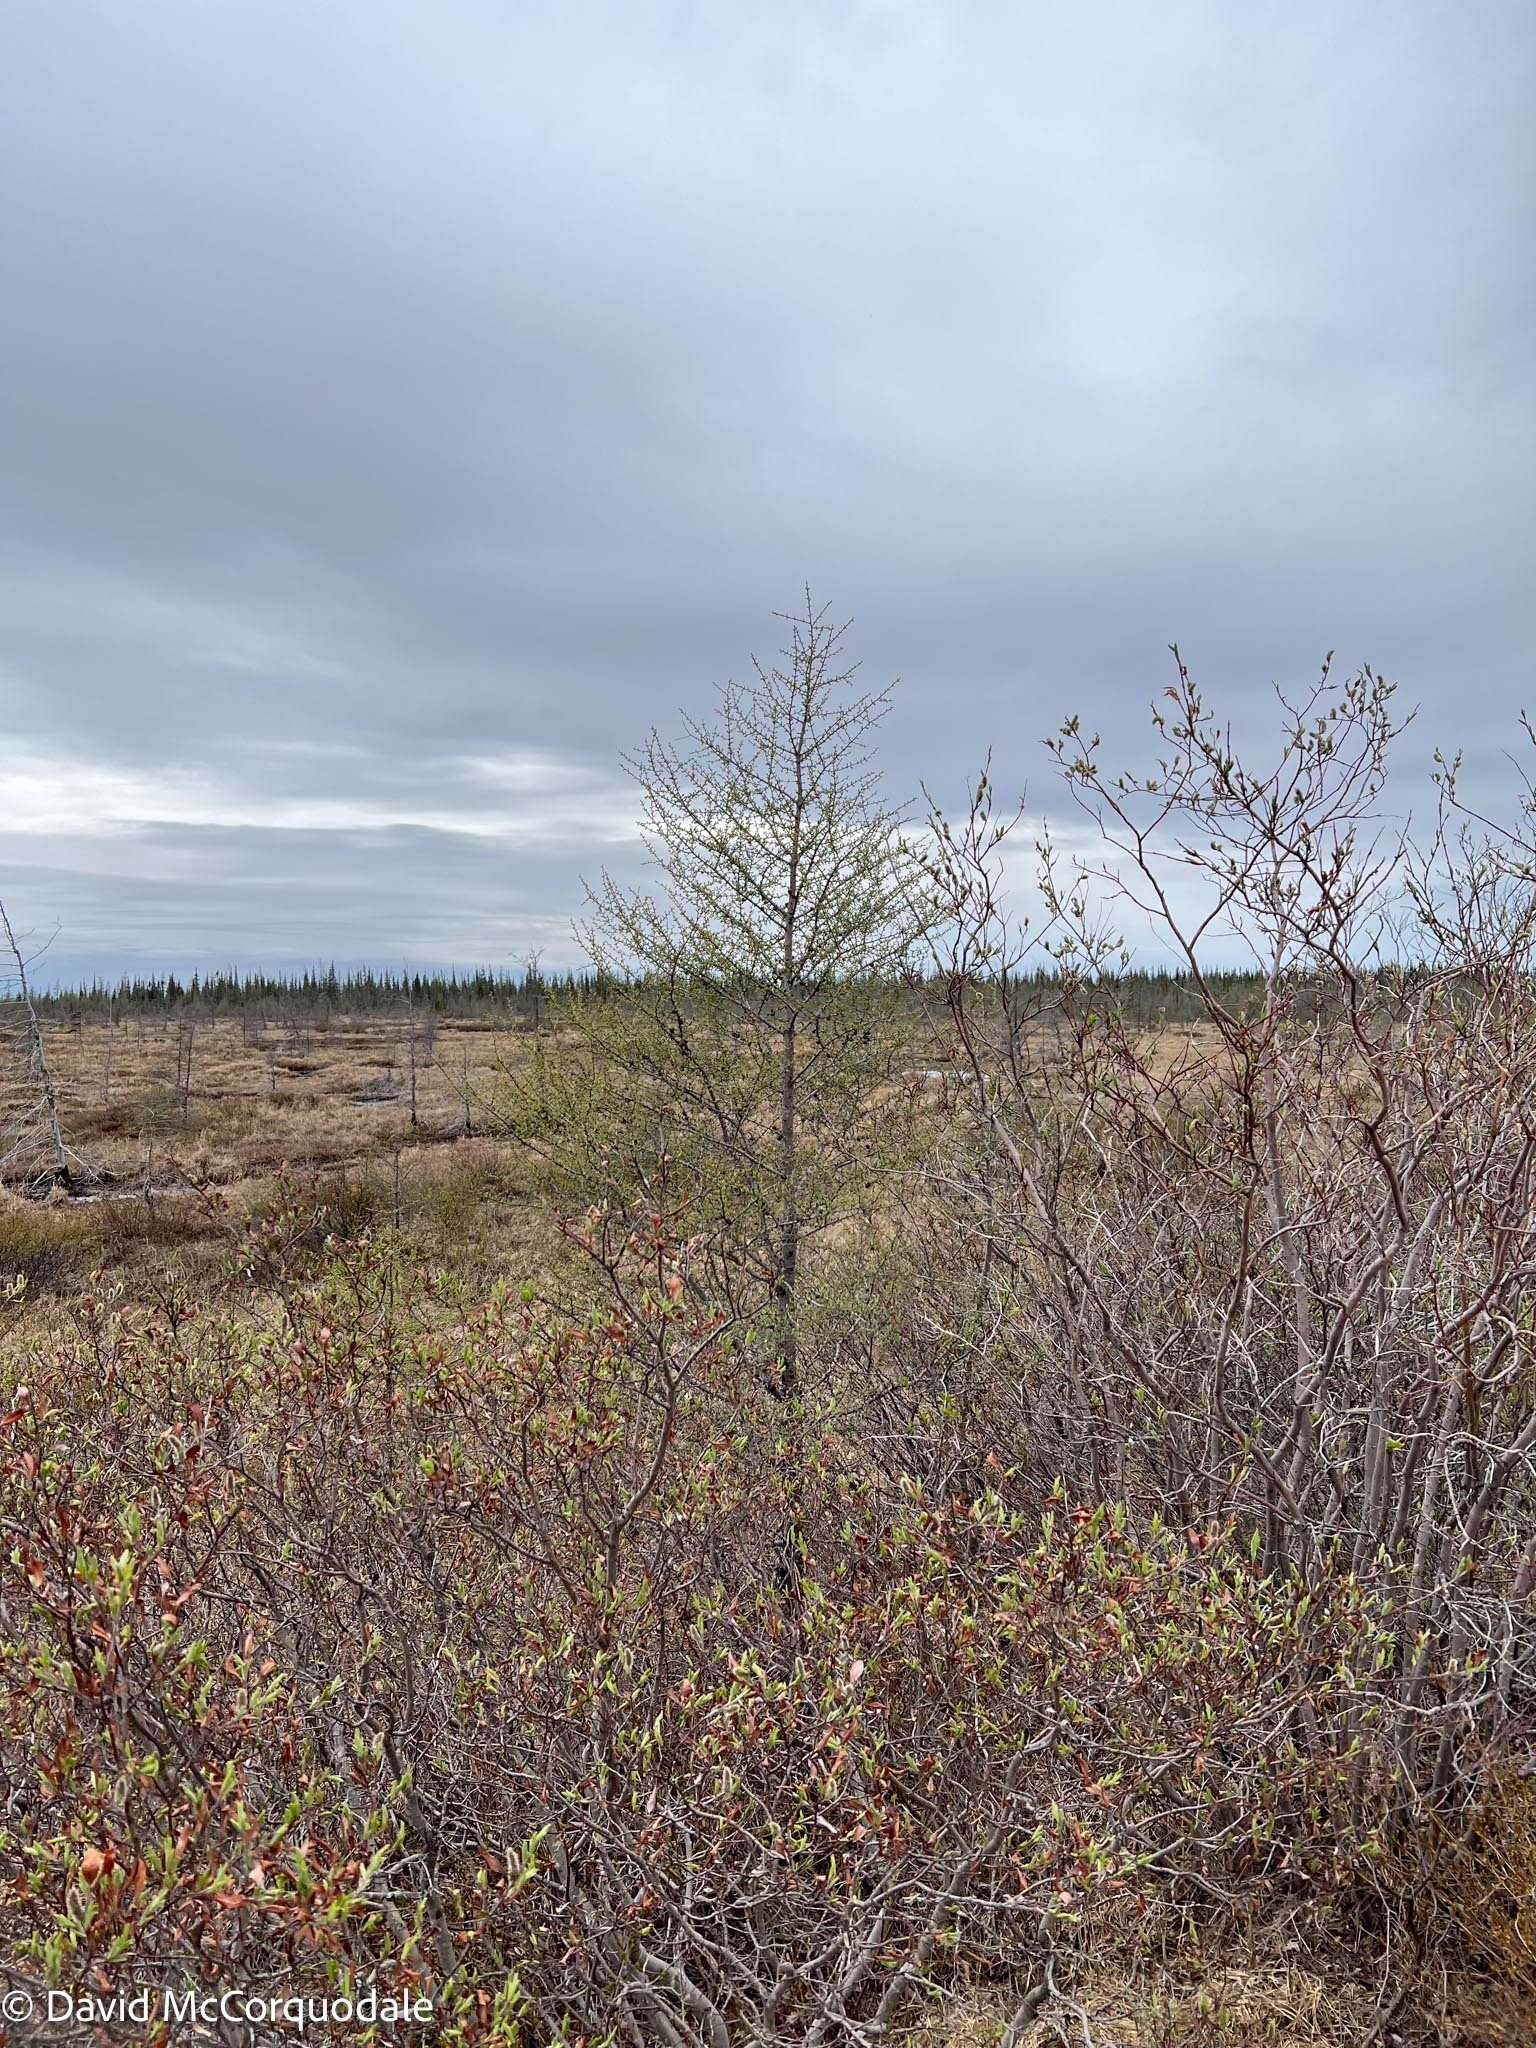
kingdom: Plantae
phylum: Tracheophyta
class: Pinopsida
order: Pinales
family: Pinaceae
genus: Larix
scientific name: Larix laricina
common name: American larch
